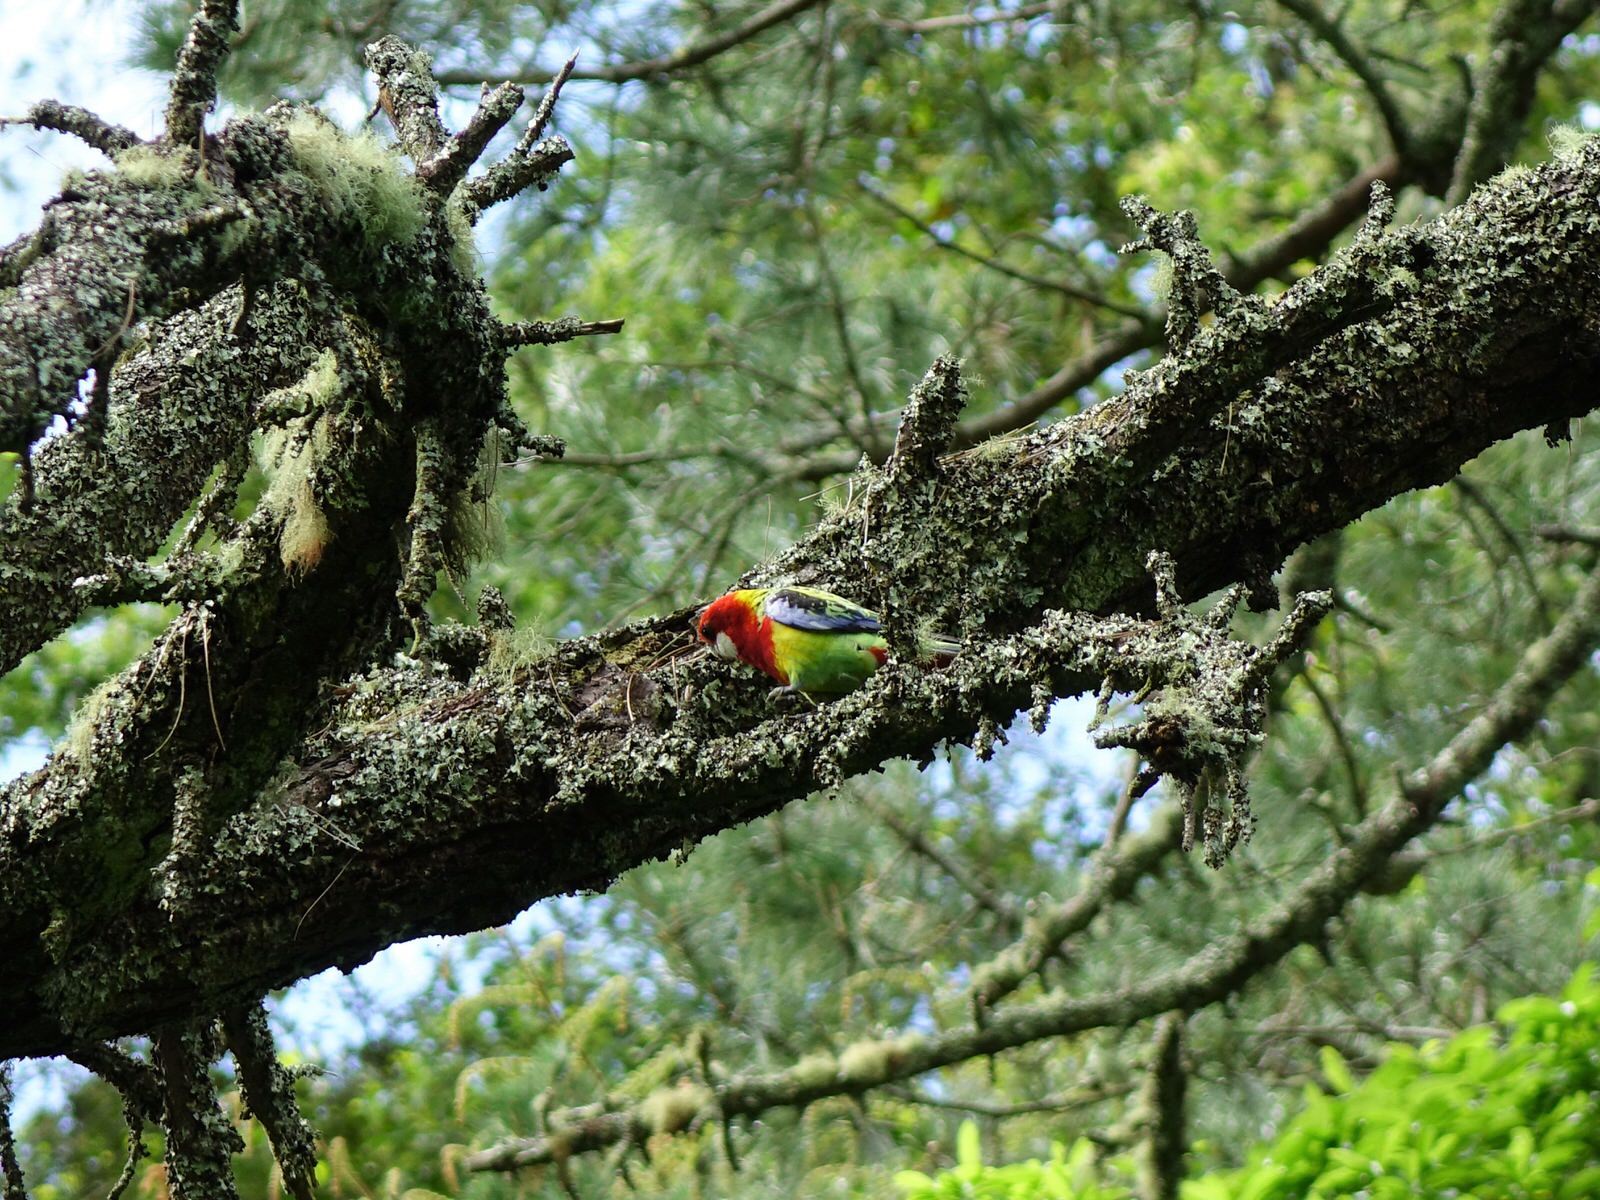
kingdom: Animalia
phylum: Chordata
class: Aves
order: Psittaciformes
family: Psittacidae
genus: Platycercus
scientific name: Platycercus eximius
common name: Eastern rosella
